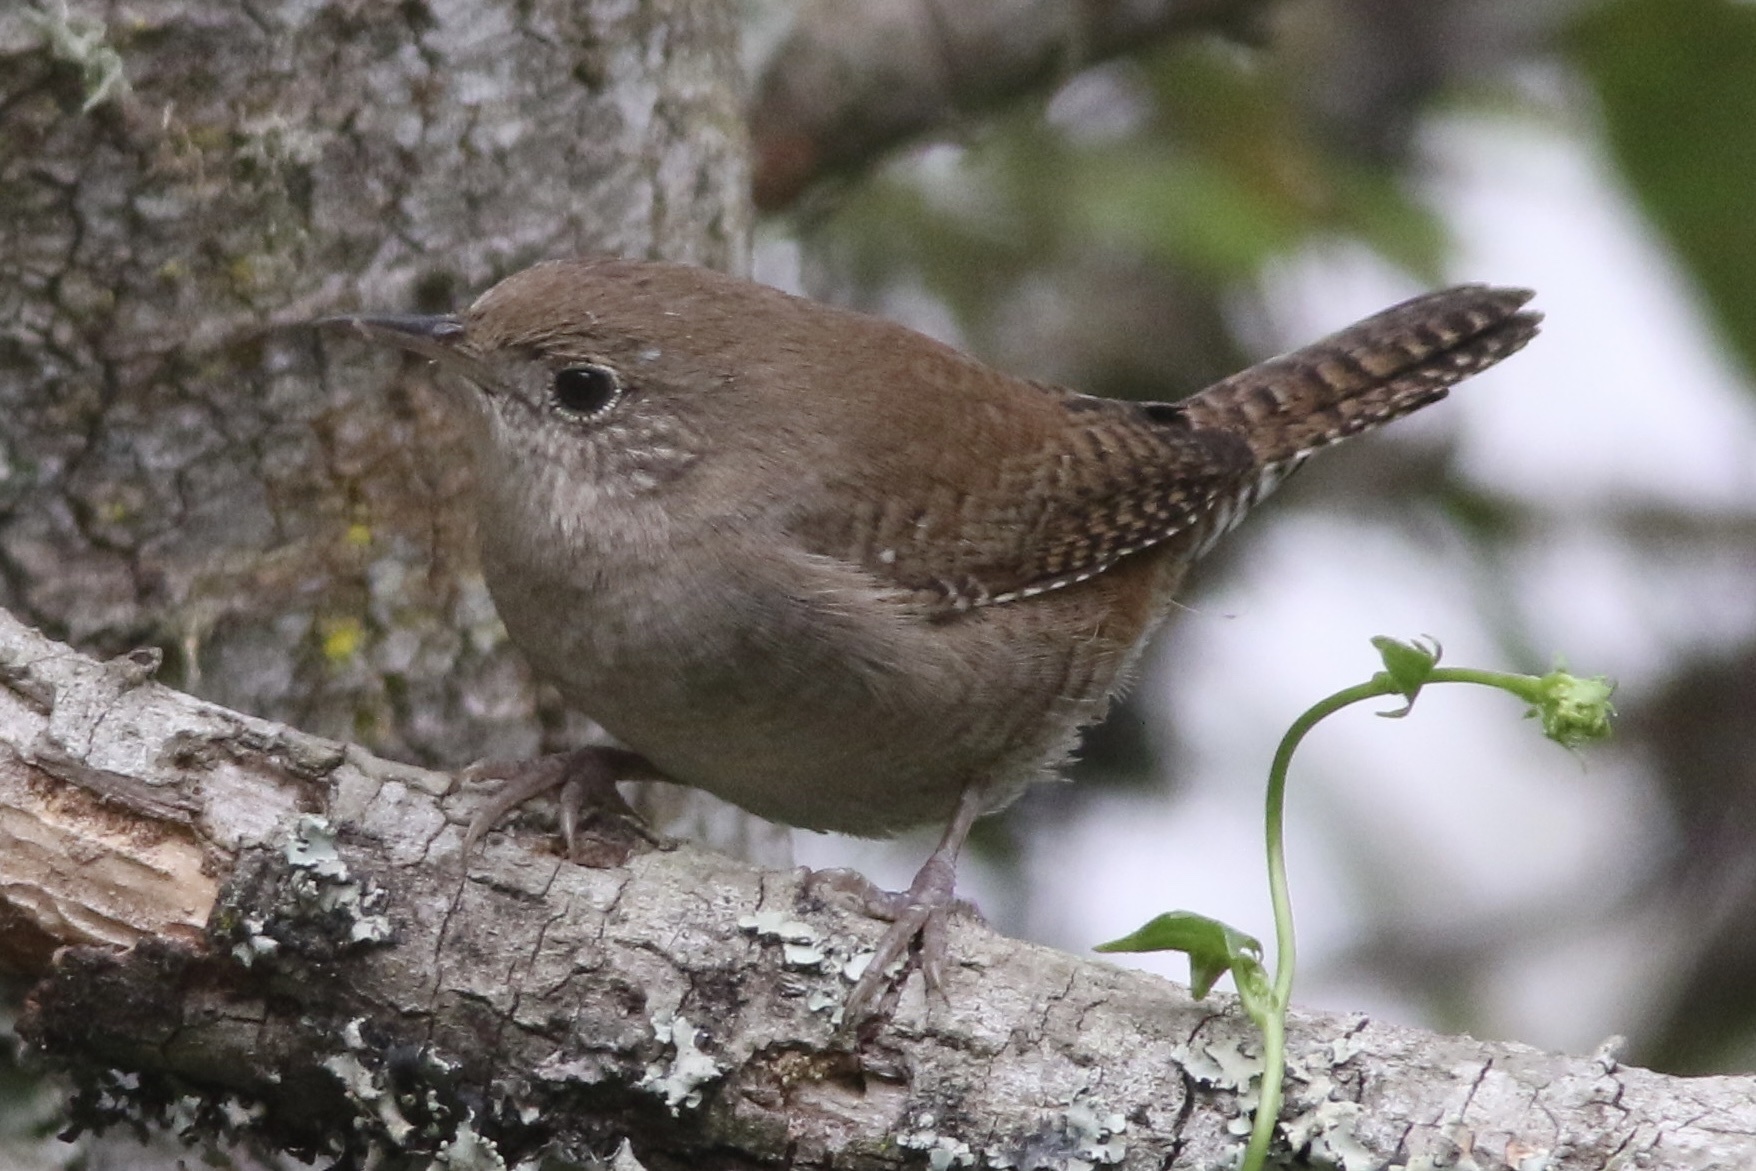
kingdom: Animalia
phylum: Chordata
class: Aves
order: Passeriformes
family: Troglodytidae
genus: Troglodytes
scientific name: Troglodytes aedon
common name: House wren
